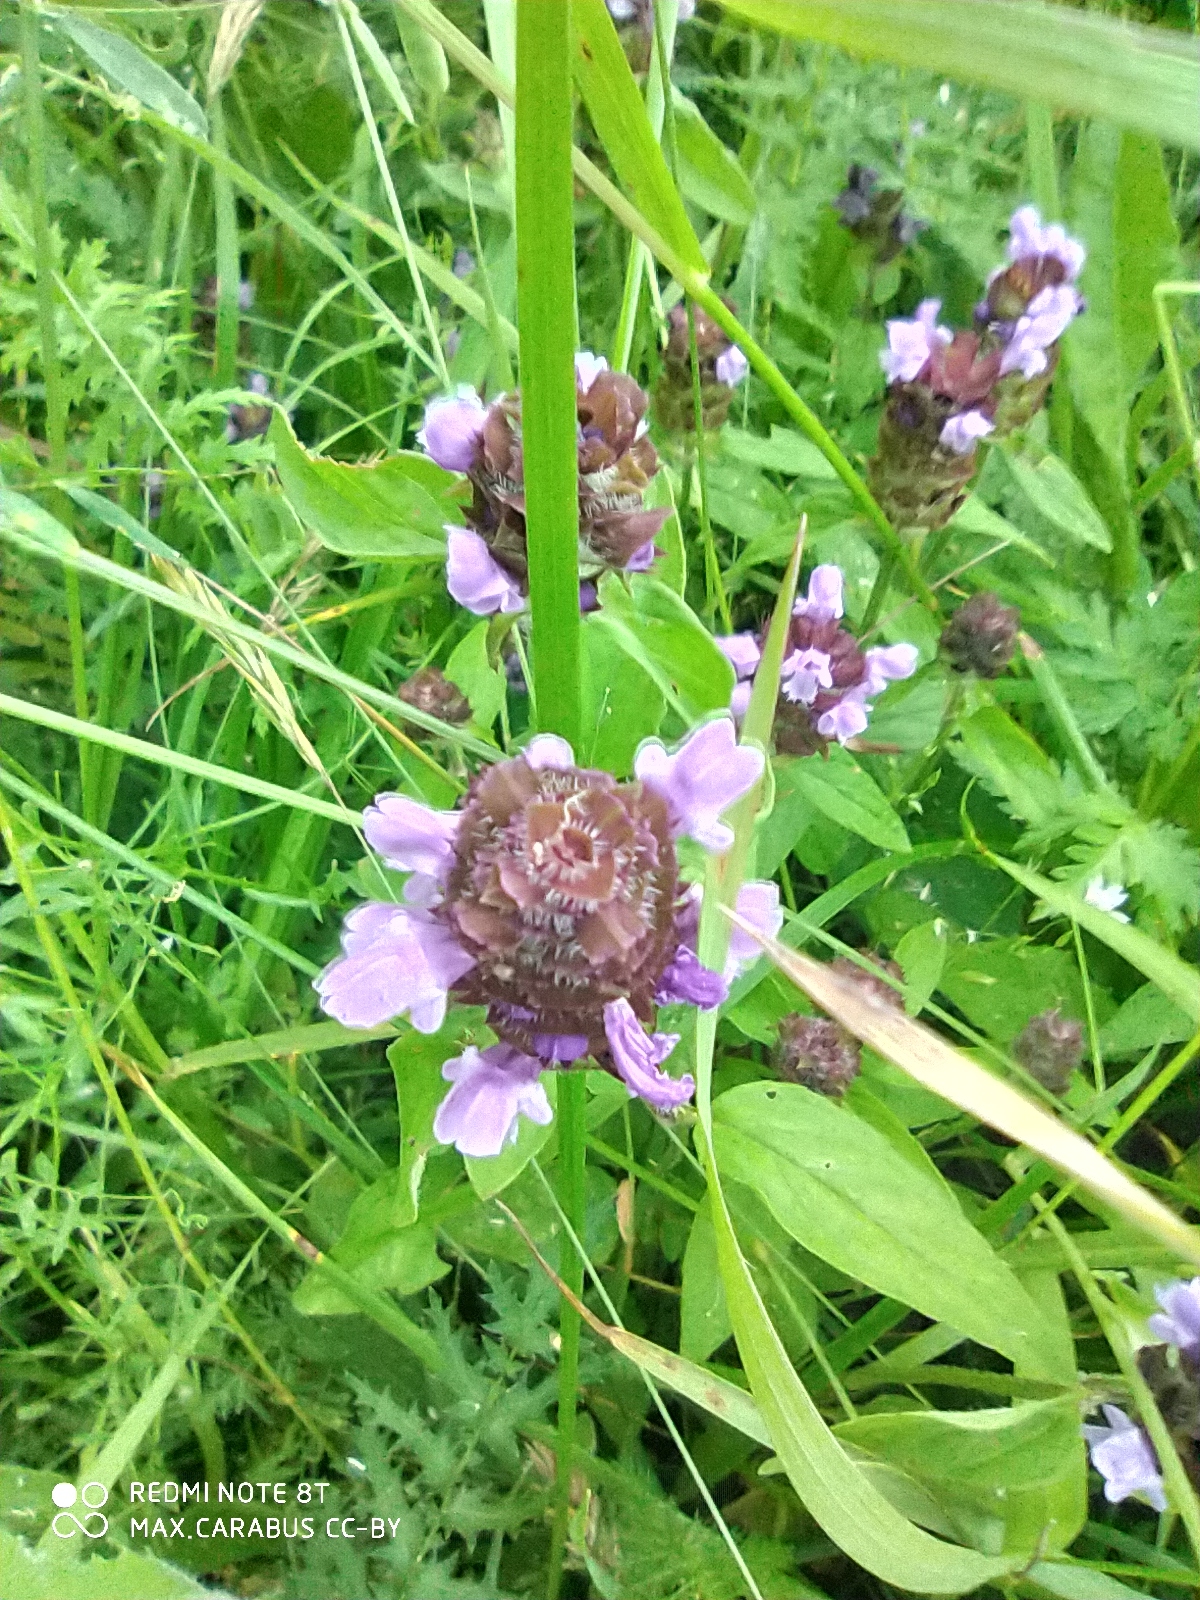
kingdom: Plantae
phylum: Tracheophyta
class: Magnoliopsida
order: Lamiales
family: Lamiaceae
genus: Prunella
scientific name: Prunella vulgaris
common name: Heal-all
